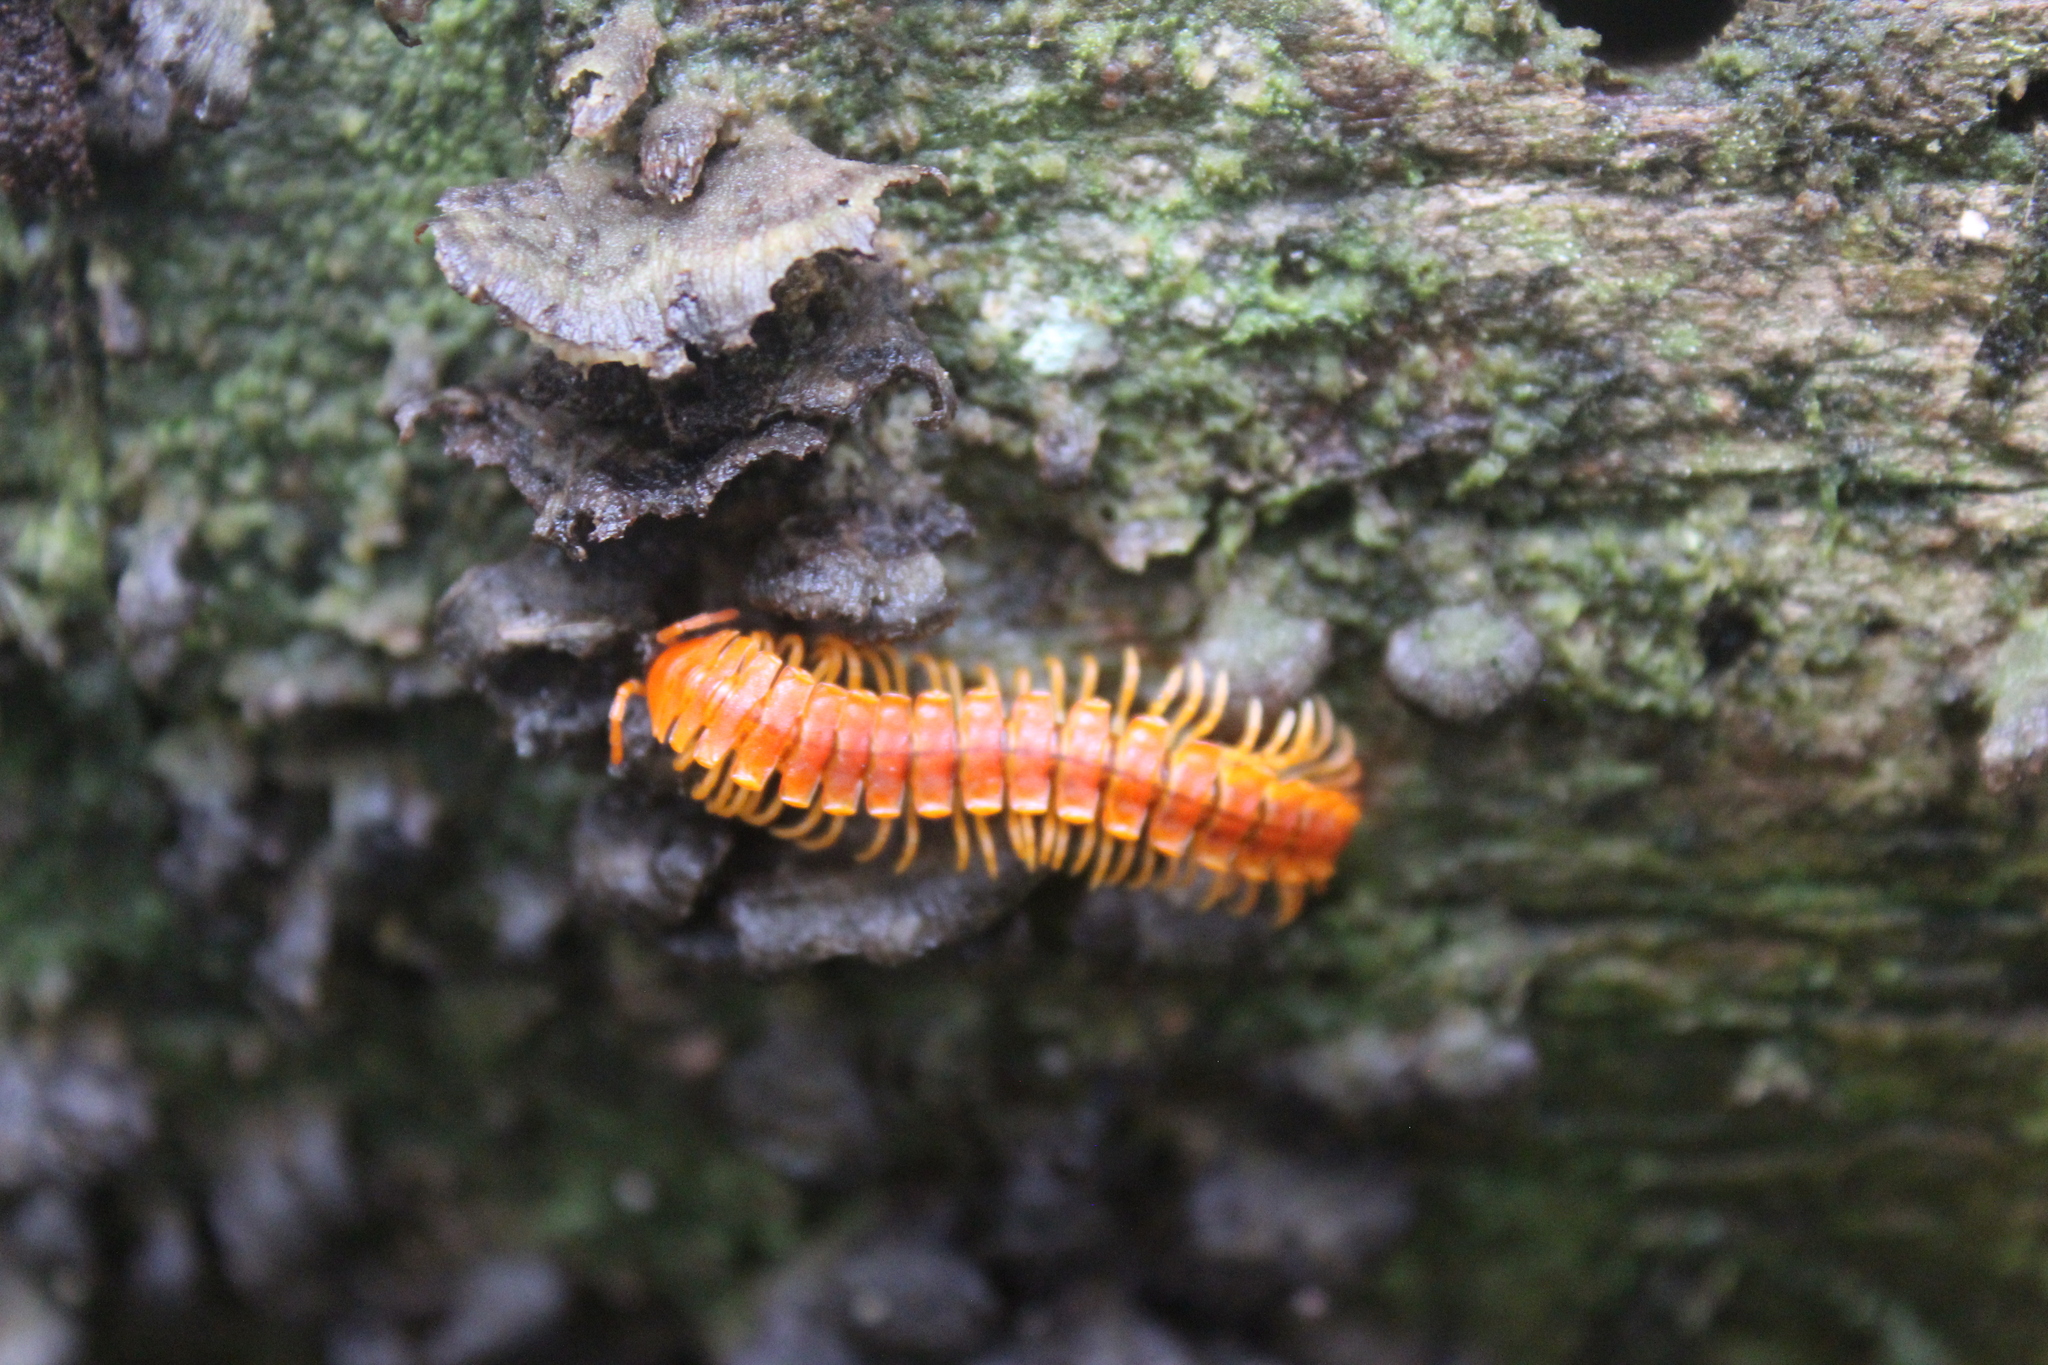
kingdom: Animalia
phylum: Arthropoda
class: Diplopoda
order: Polydesmida
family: Rhachodesmidae
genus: Aceratophallus
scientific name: Aceratophallus maya
